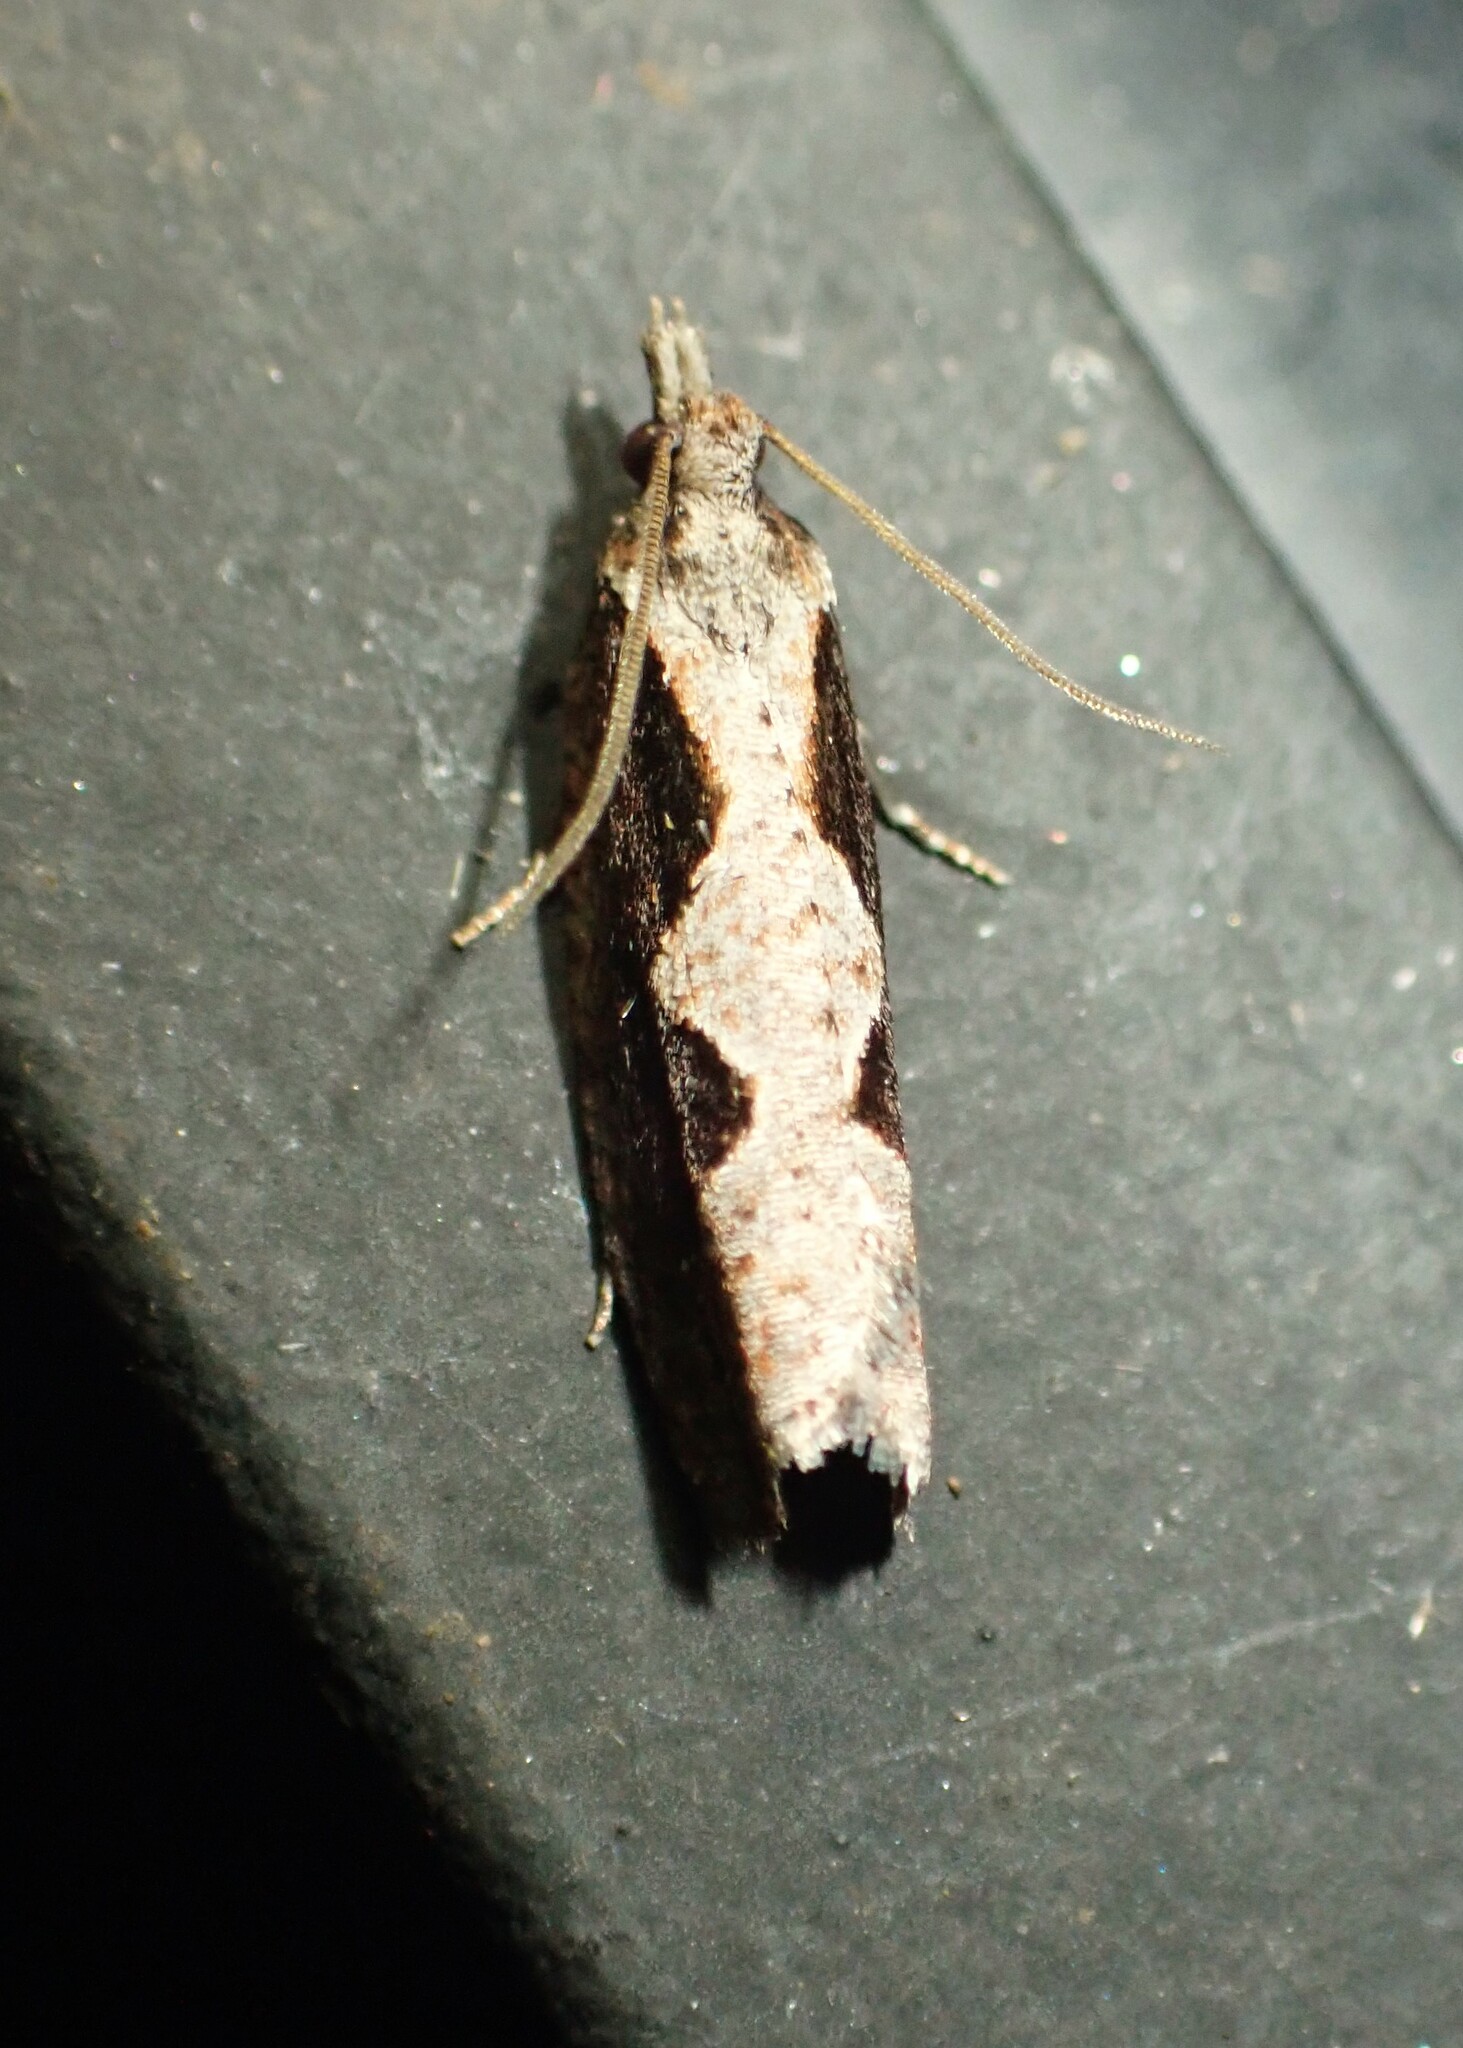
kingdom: Animalia
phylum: Arthropoda
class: Insecta
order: Lepidoptera
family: Tortricidae
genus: Epinotia
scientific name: Epinotia lindana
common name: Diamondback epinotia moth
